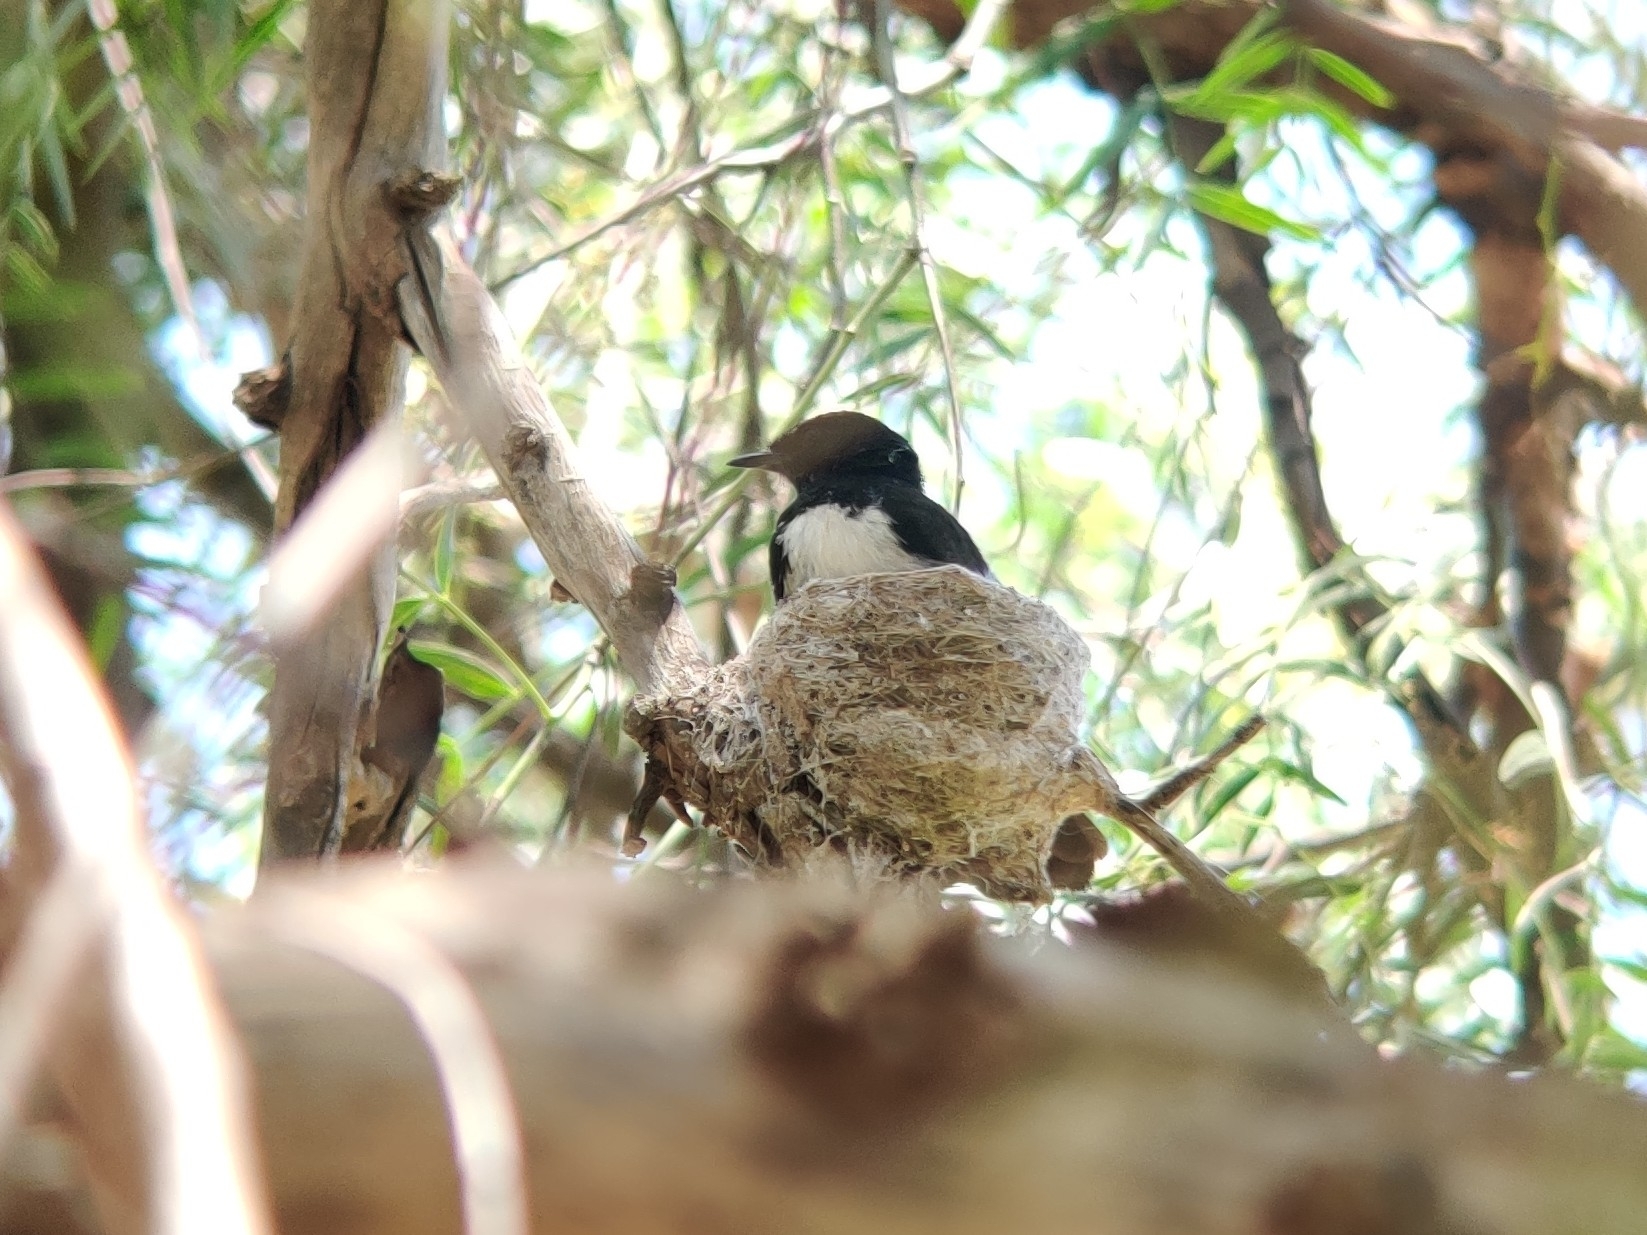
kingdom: Animalia
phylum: Chordata
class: Aves
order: Passeriformes
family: Rhipiduridae
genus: Rhipidura
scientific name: Rhipidura leucophrys
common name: Willie wagtail
